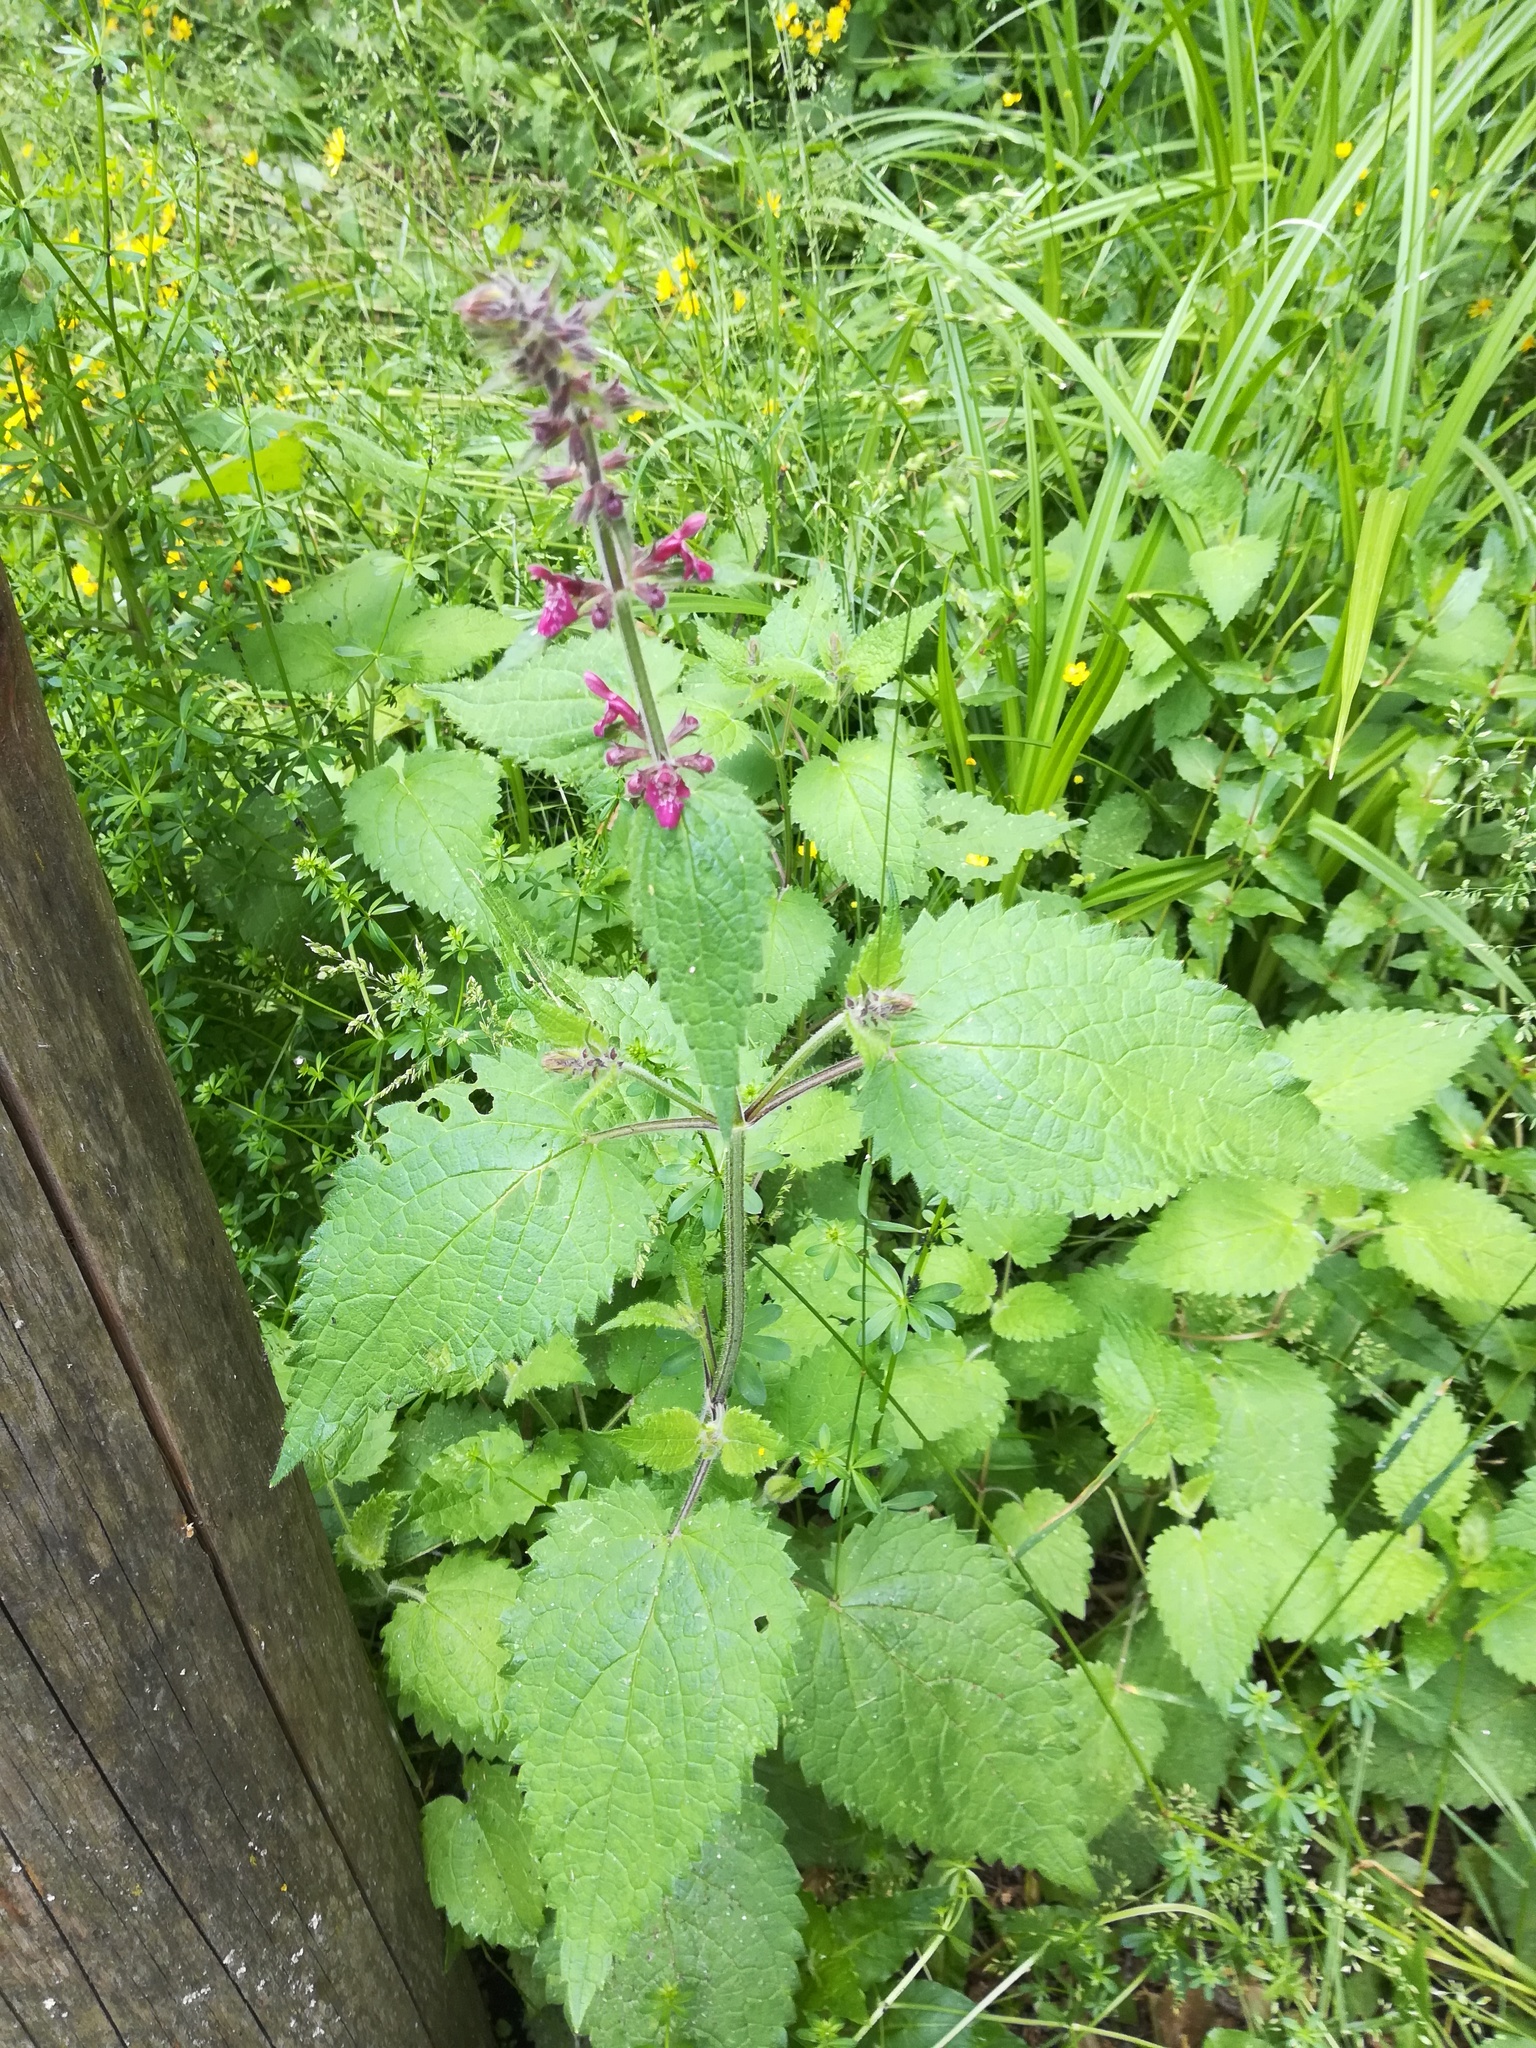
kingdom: Plantae
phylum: Tracheophyta
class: Magnoliopsida
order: Lamiales
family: Lamiaceae
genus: Stachys
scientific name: Stachys sylvatica
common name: Hedge woundwort
